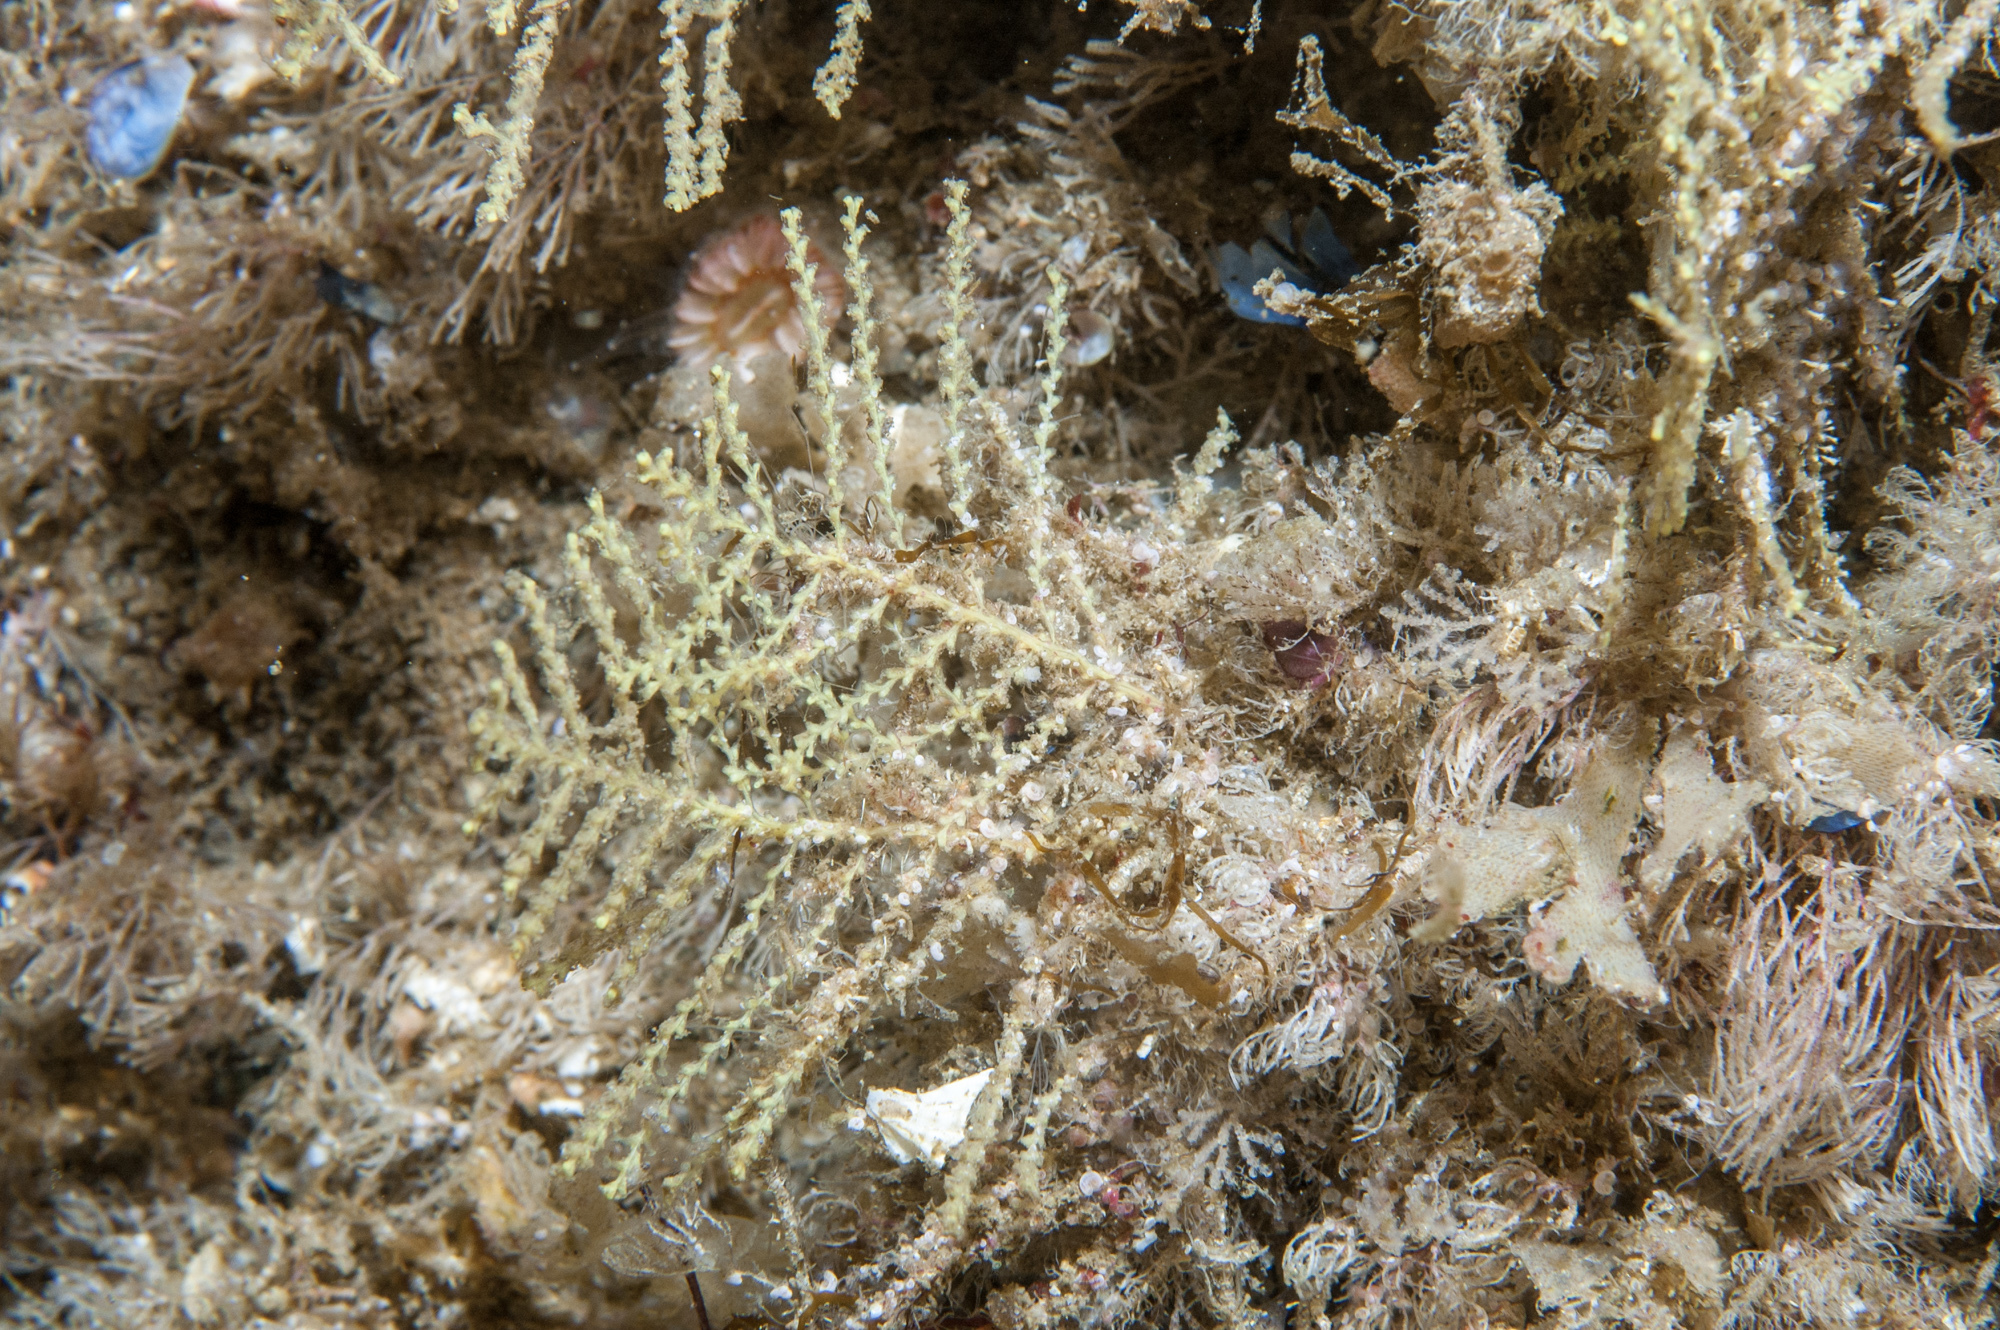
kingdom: Animalia
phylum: Cnidaria
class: Hydrozoa
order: Leptothecata
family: Sertularellidae
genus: Sertularella
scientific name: Sertularella gayi
